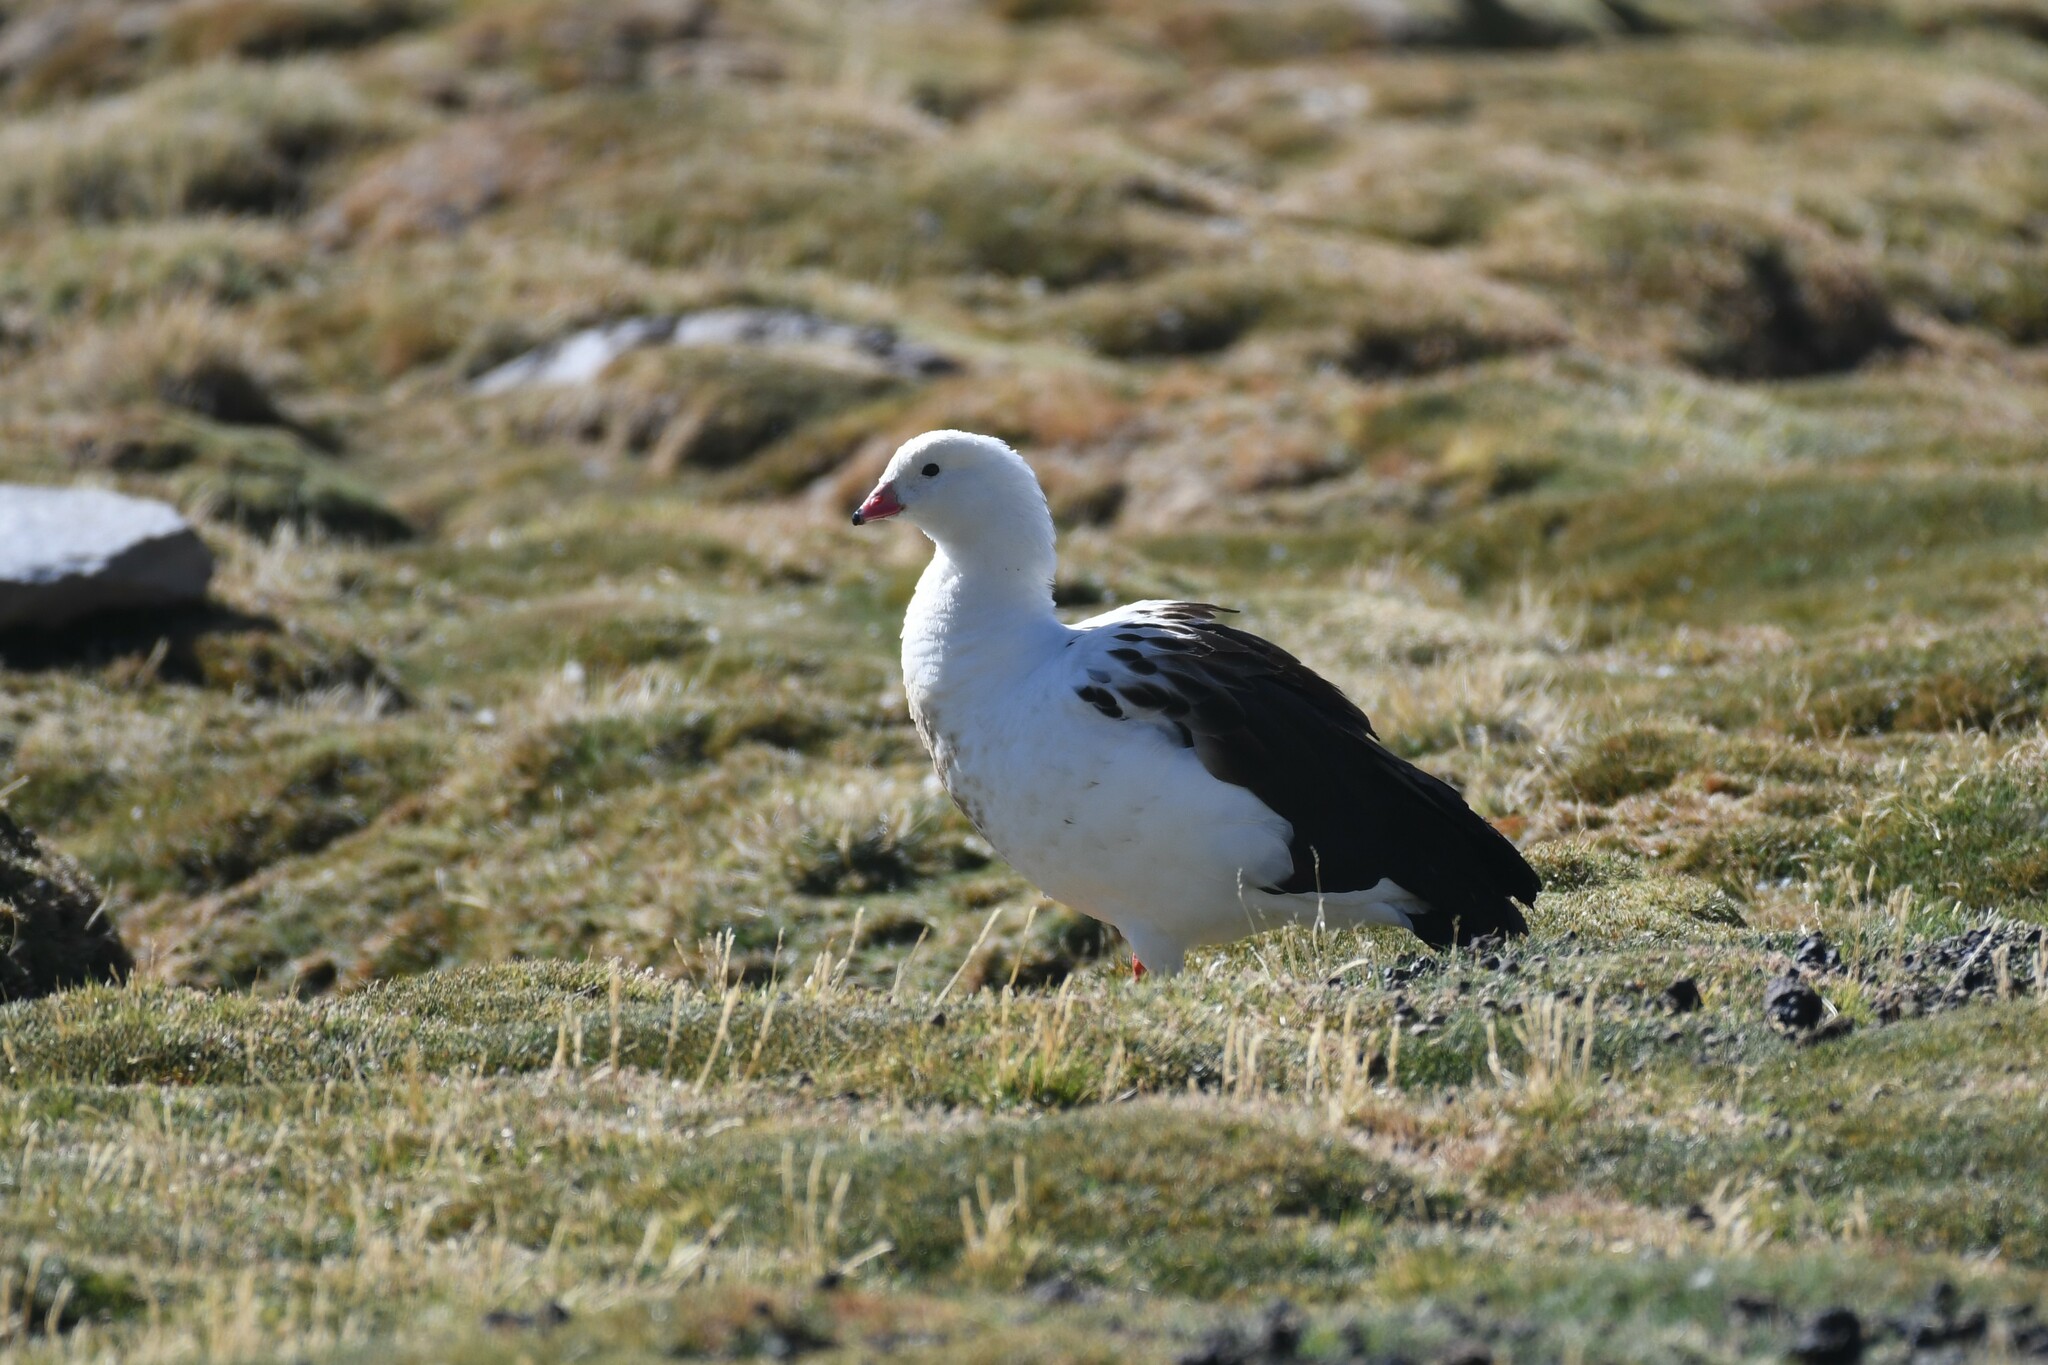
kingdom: Animalia
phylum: Chordata
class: Aves
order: Anseriformes
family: Anatidae
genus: Chloephaga
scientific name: Chloephaga melanoptera
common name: Andean goose
